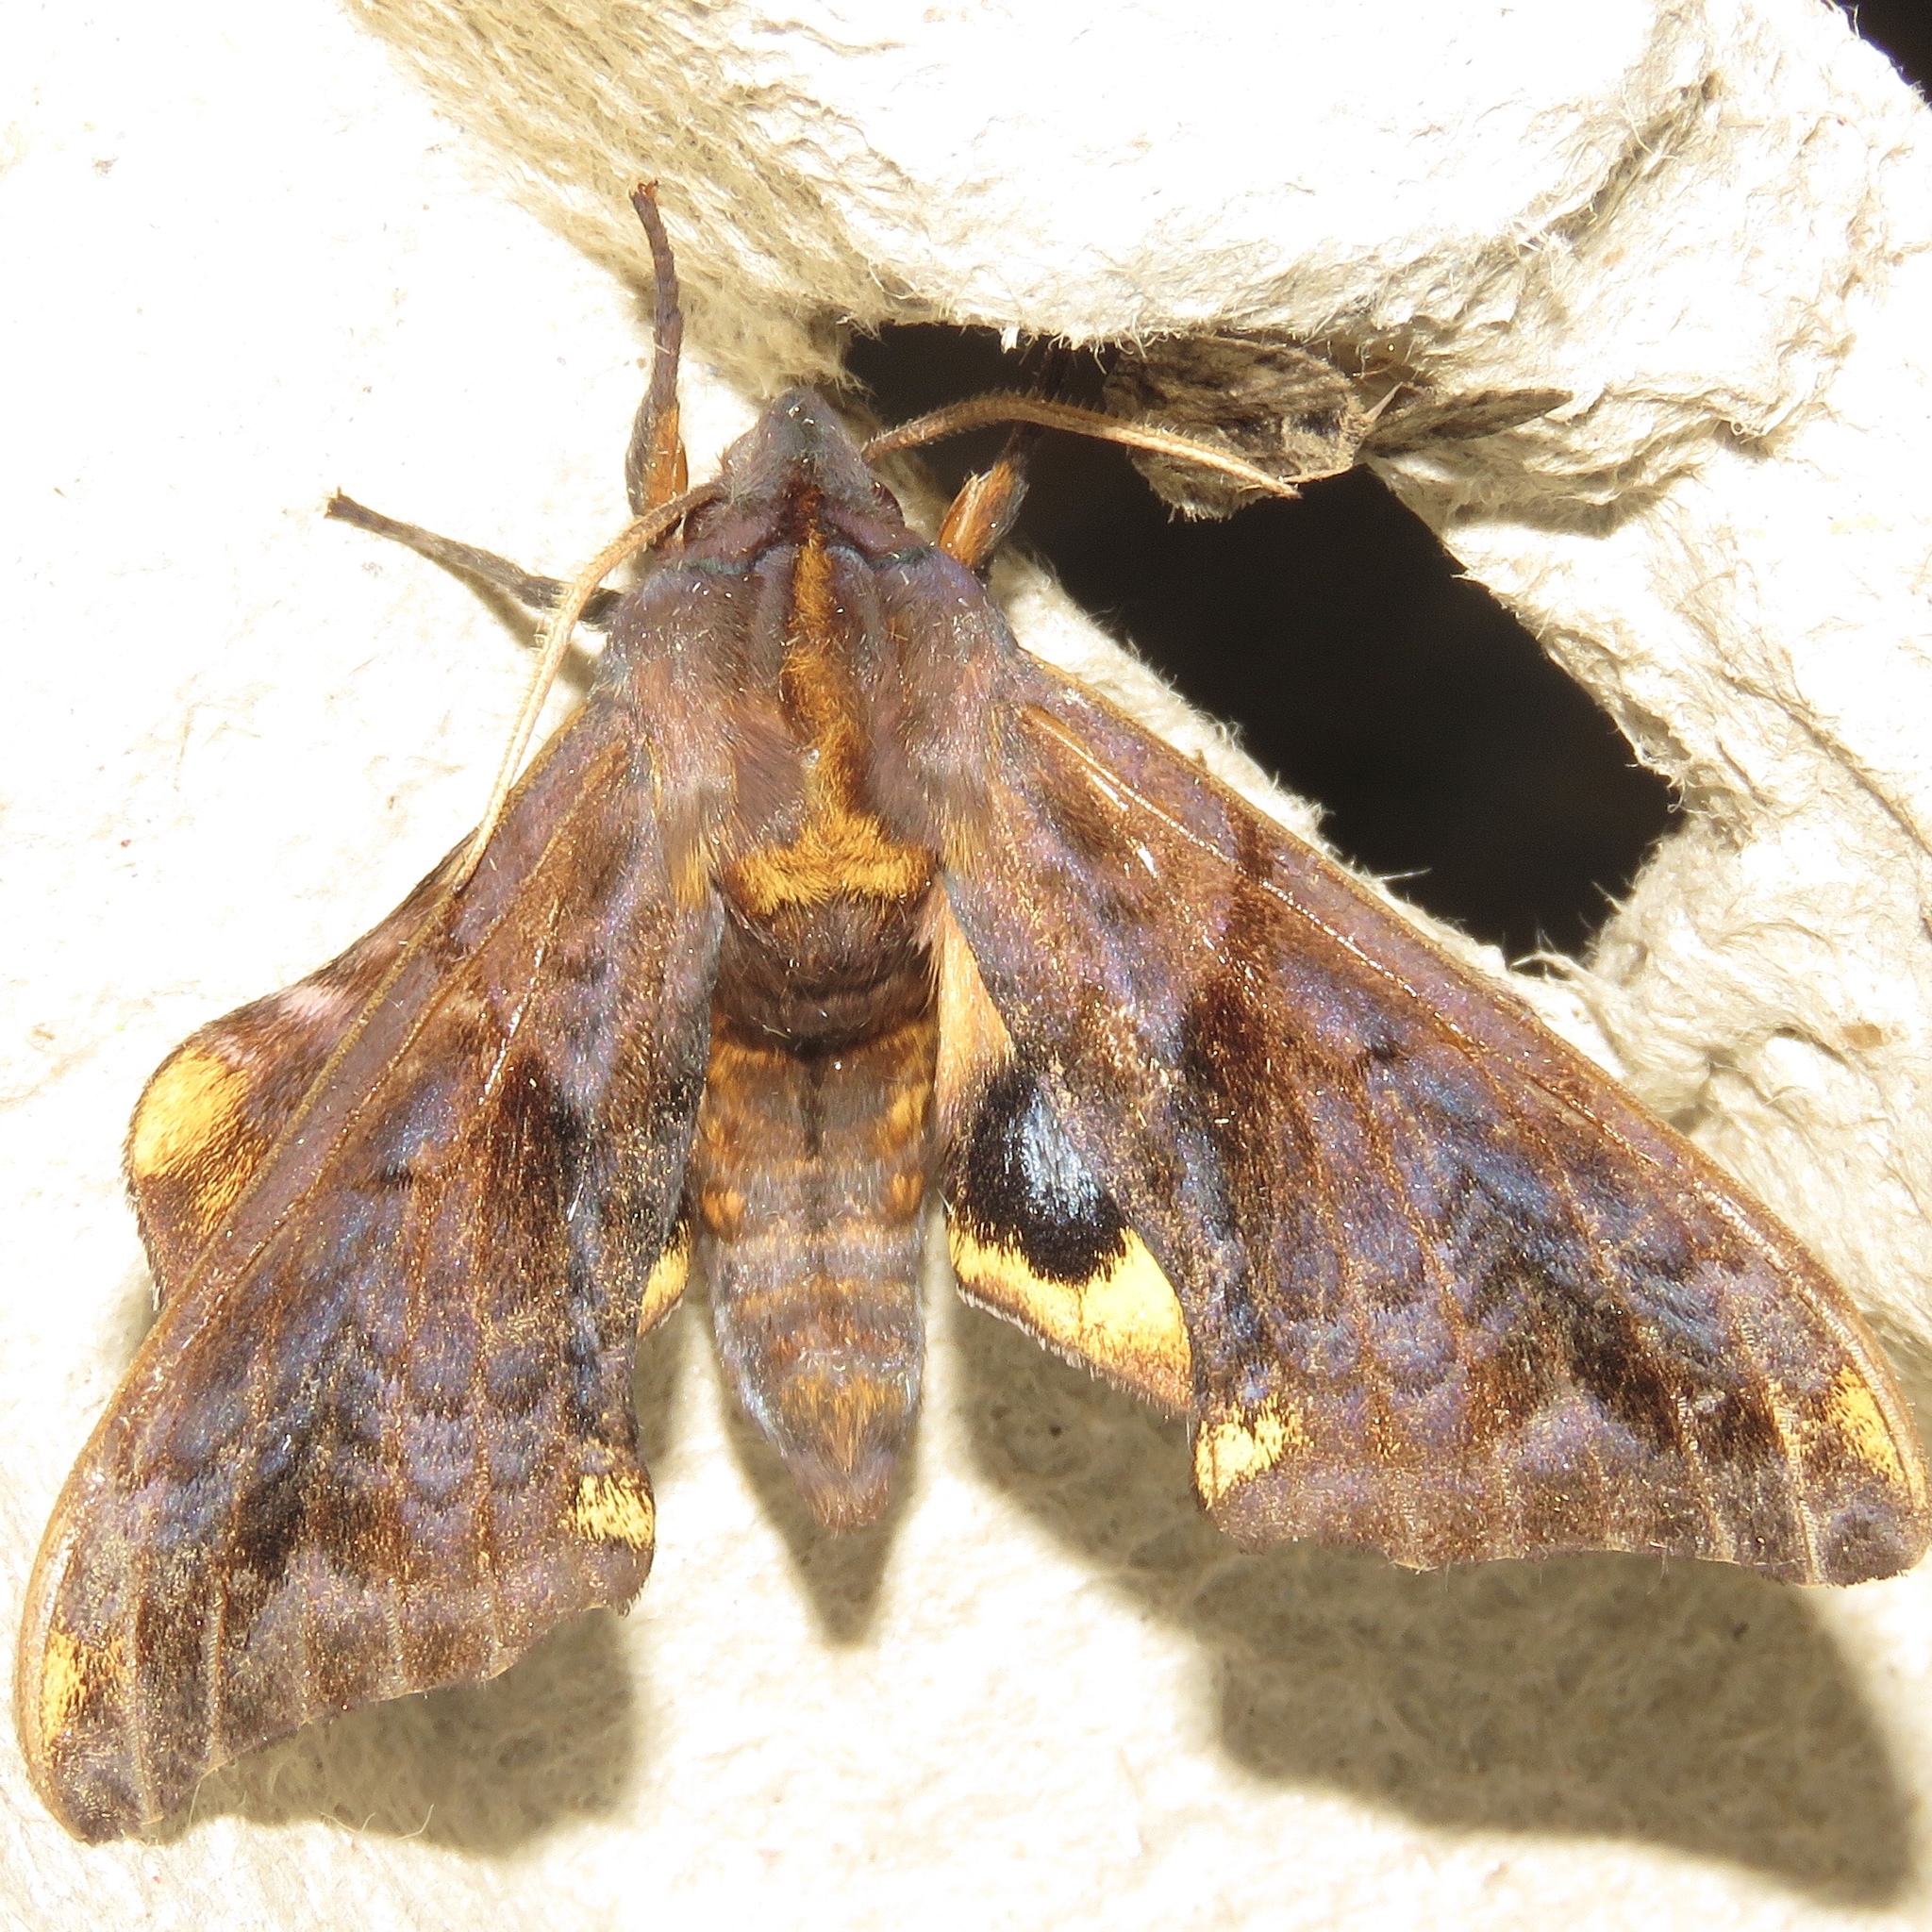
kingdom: Animalia
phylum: Arthropoda
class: Insecta
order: Lepidoptera
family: Sphingidae
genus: Paonias
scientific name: Paonias myops
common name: Small-eyed sphinx
